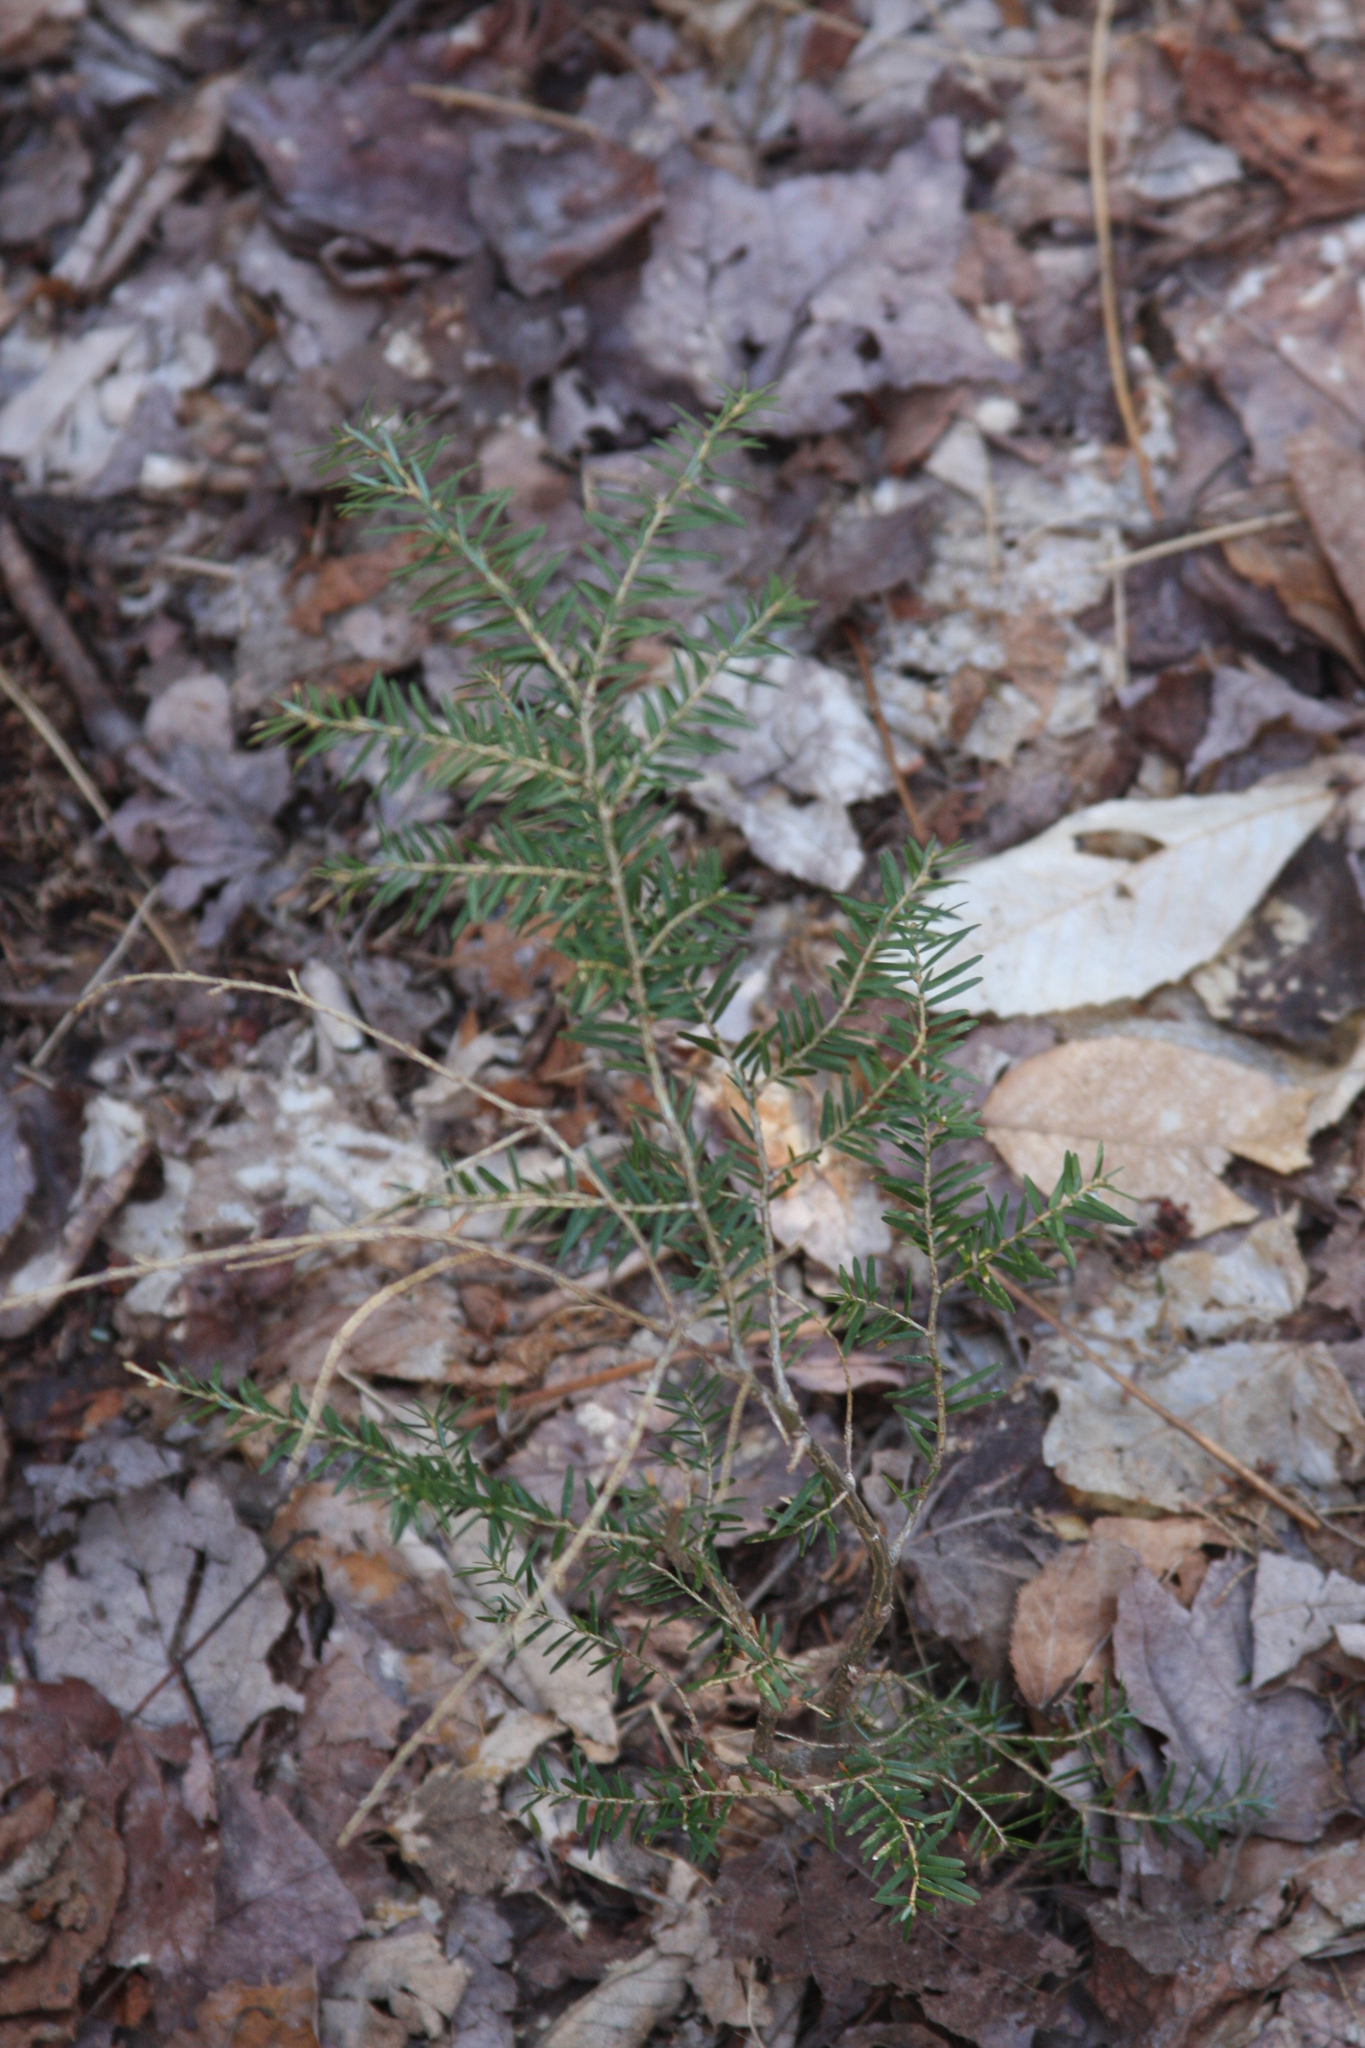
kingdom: Plantae
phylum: Tracheophyta
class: Pinopsida
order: Pinales
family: Pinaceae
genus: Tsuga
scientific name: Tsuga canadensis
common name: Eastern hemlock
